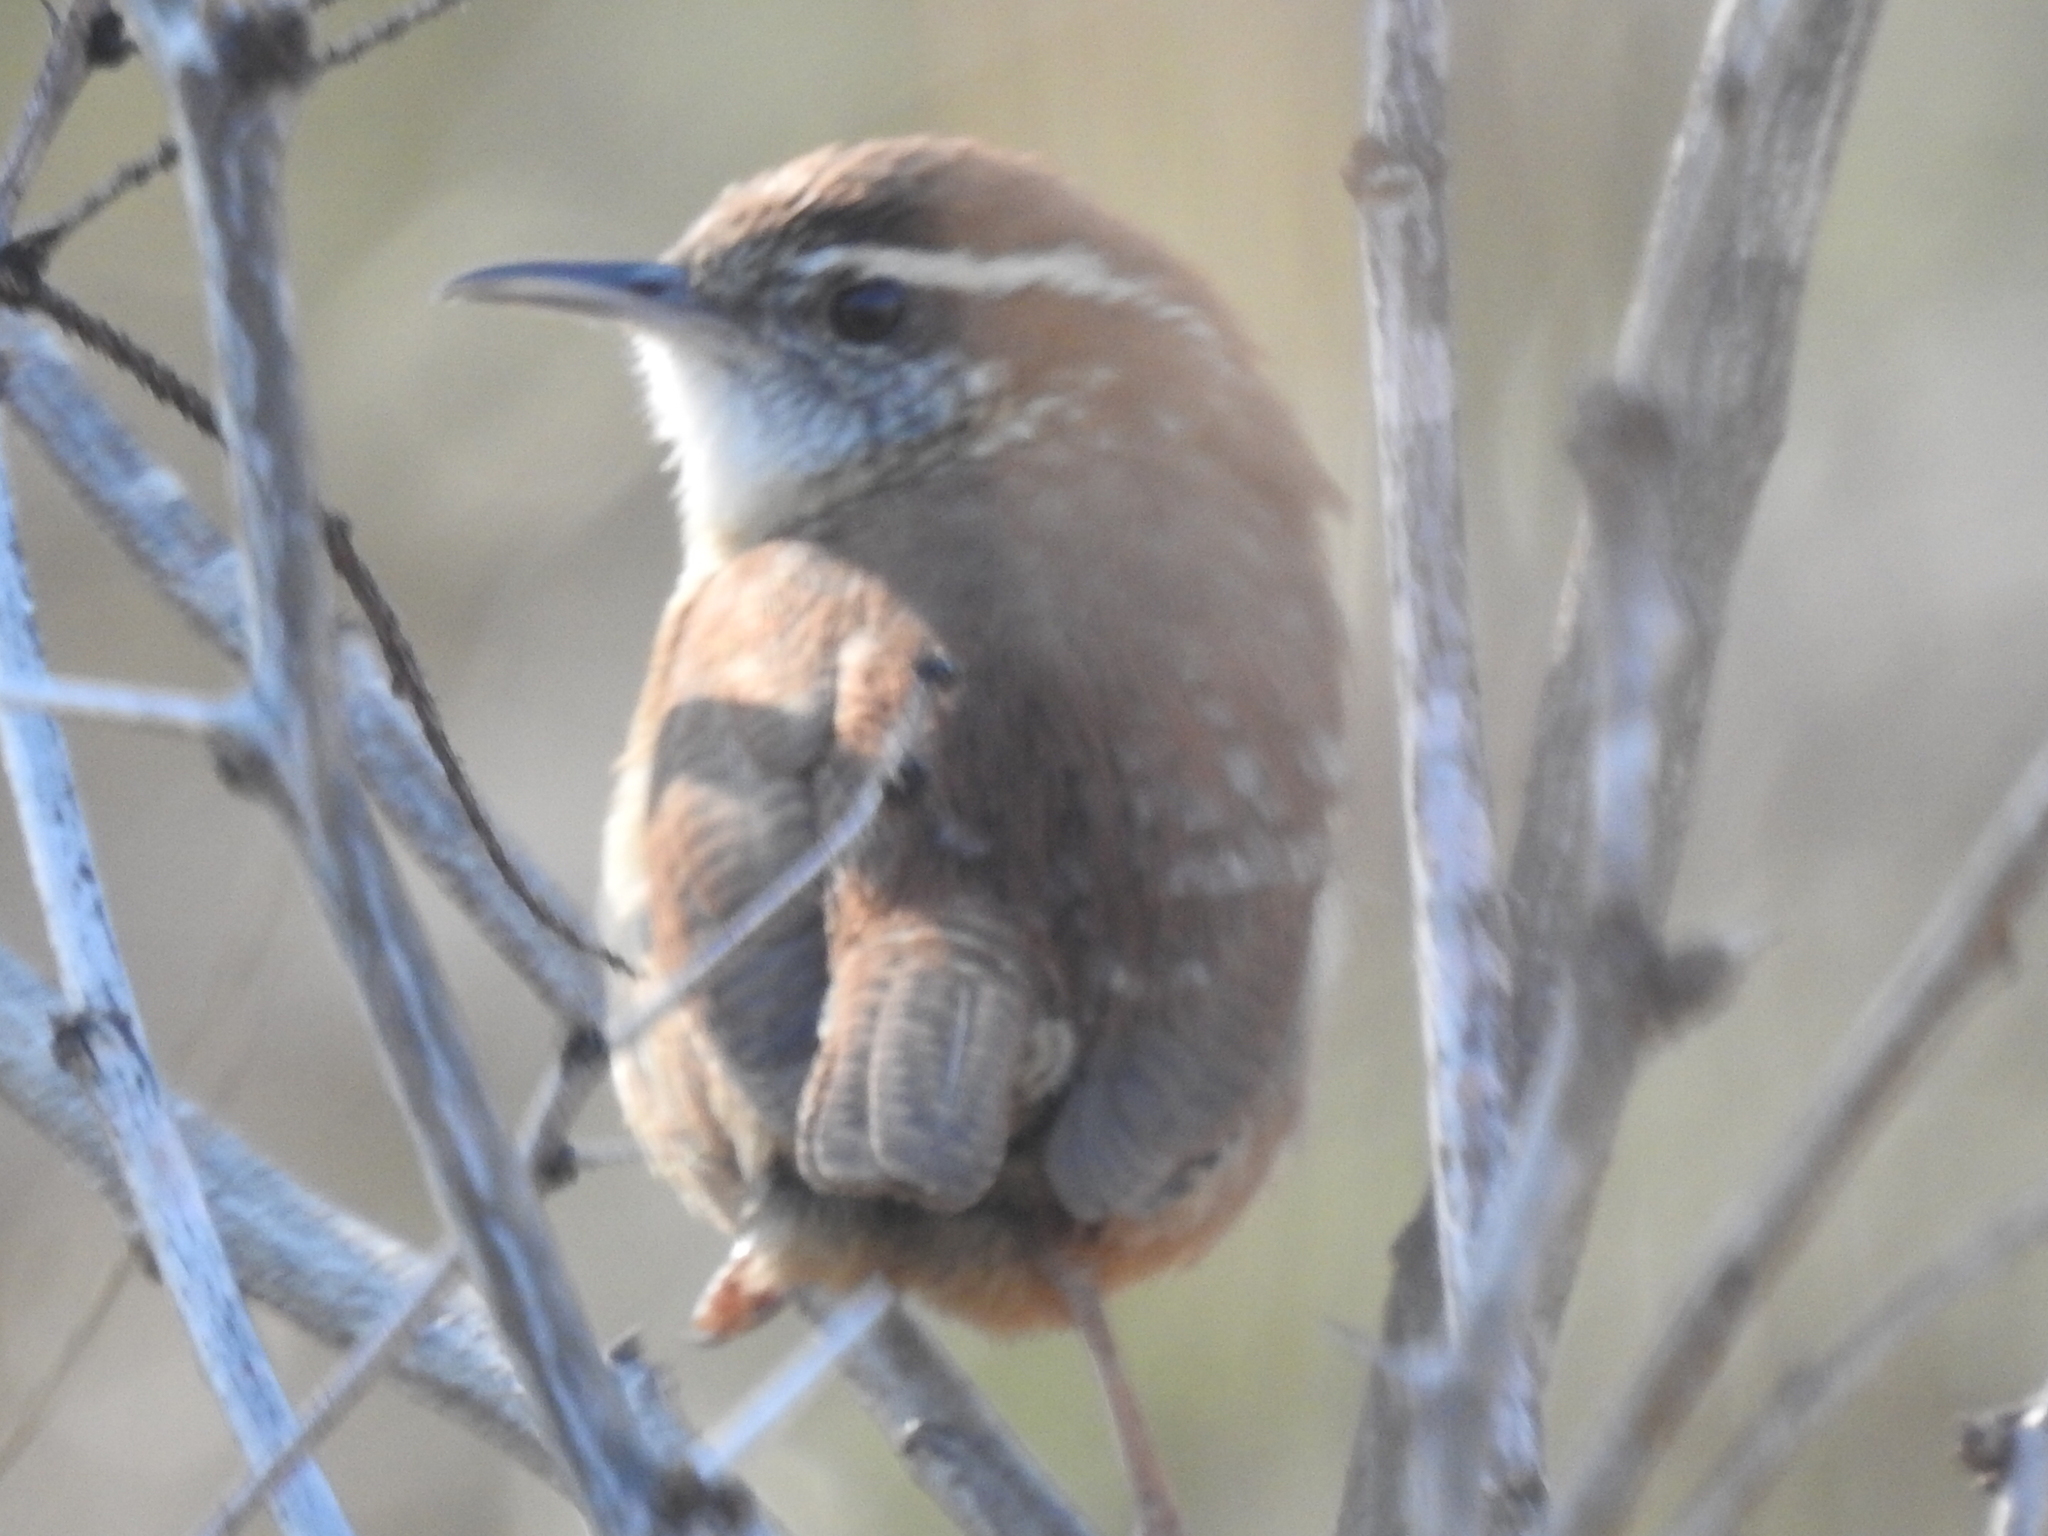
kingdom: Animalia
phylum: Chordata
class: Aves
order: Passeriformes
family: Troglodytidae
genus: Thryothorus
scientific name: Thryothorus ludovicianus
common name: Carolina wren
